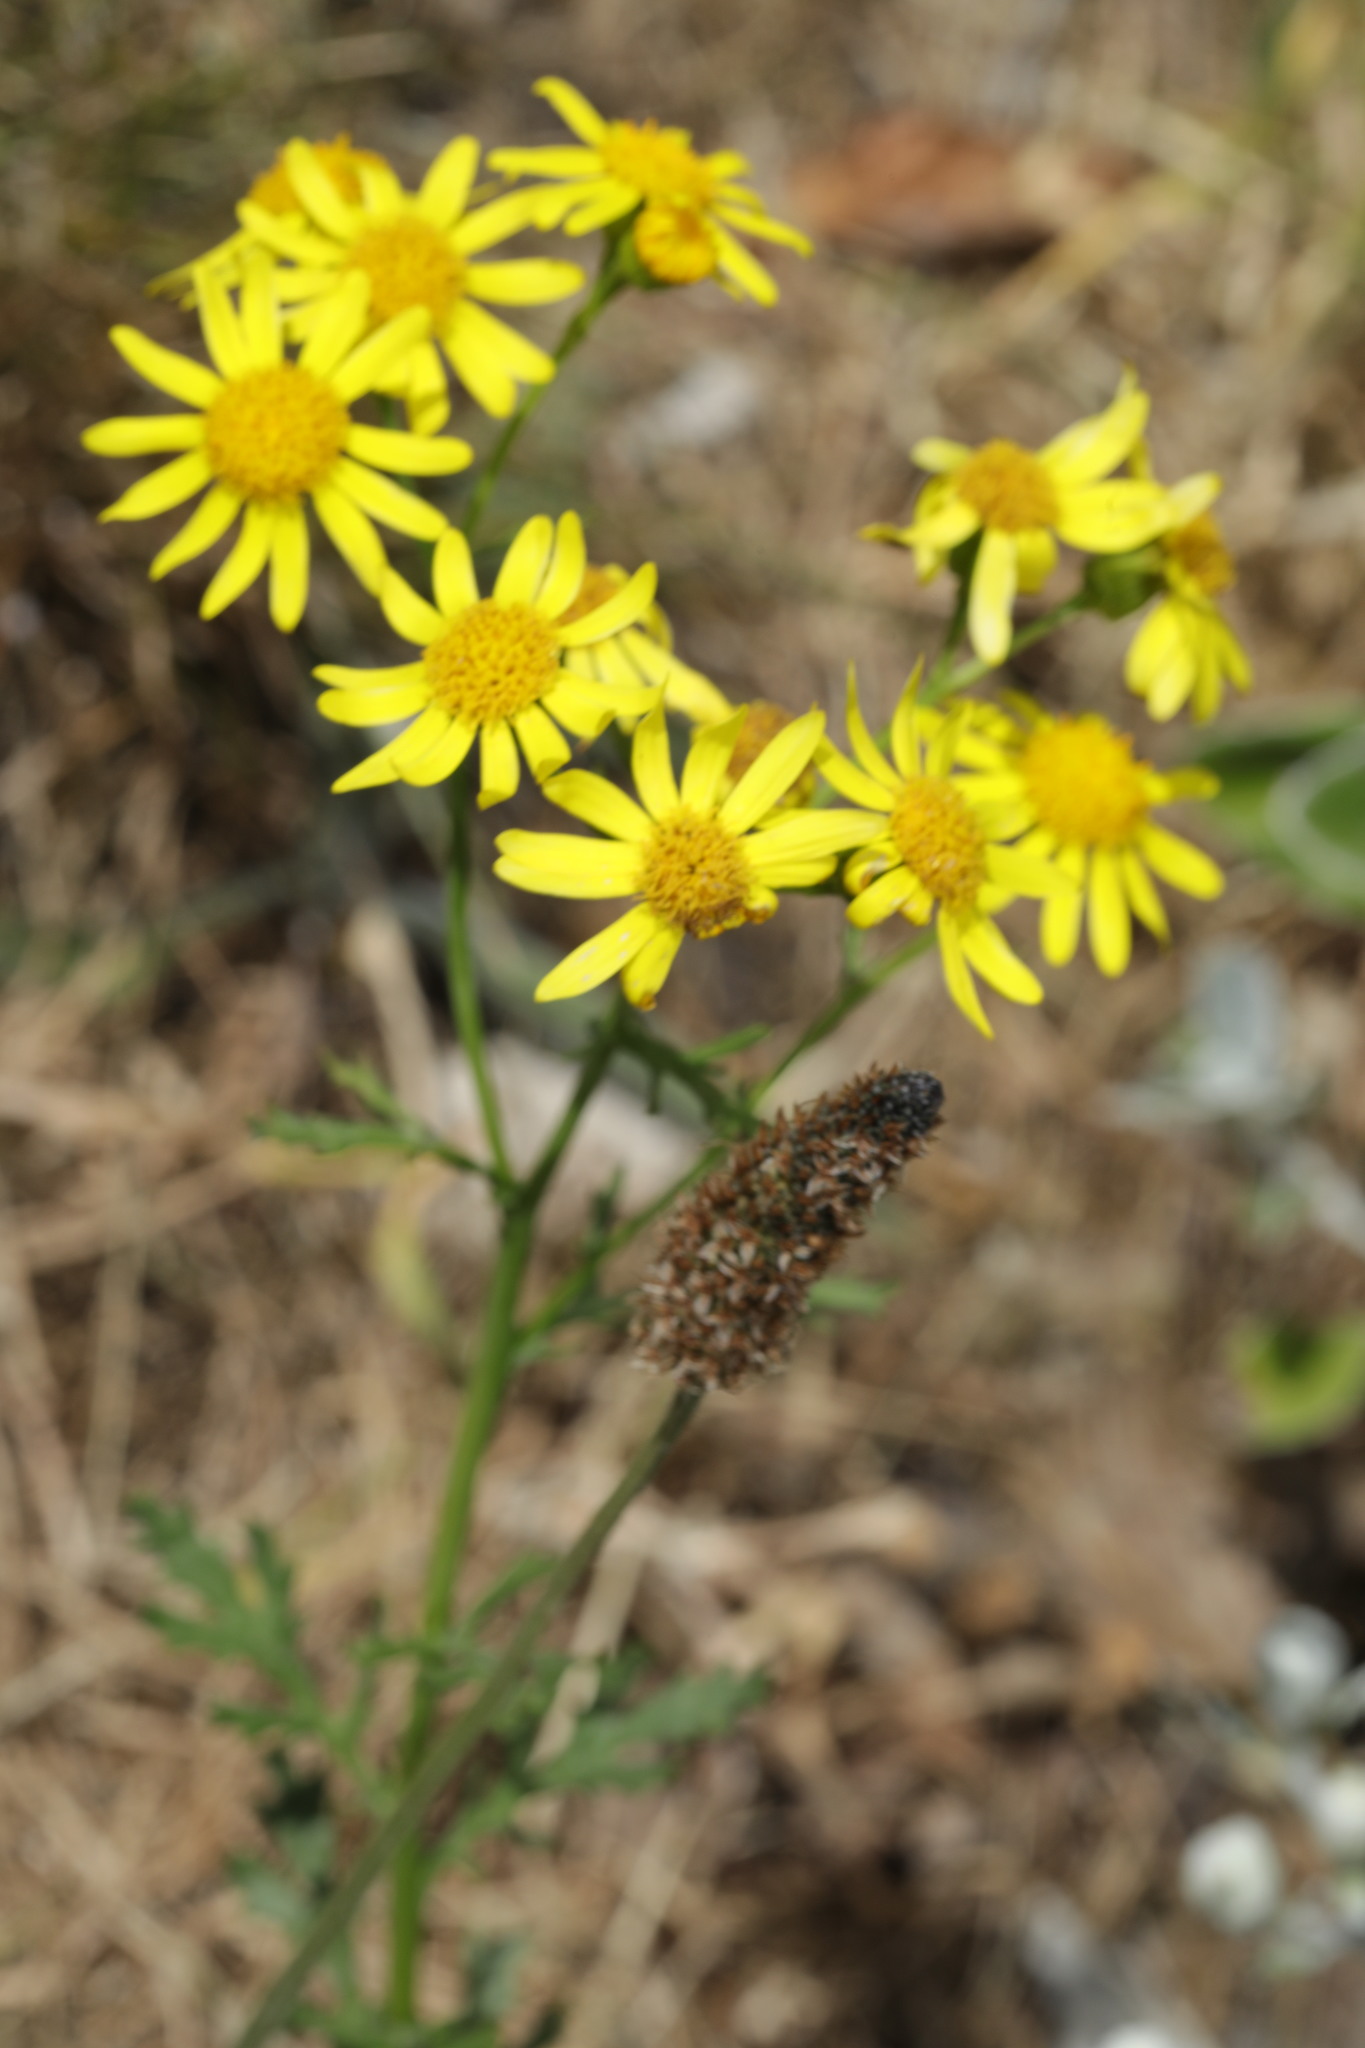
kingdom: Plantae
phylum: Tracheophyta
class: Magnoliopsida
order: Asterales
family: Asteraceae
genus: Jacobaea
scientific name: Jacobaea vulgaris
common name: Stinking willie
